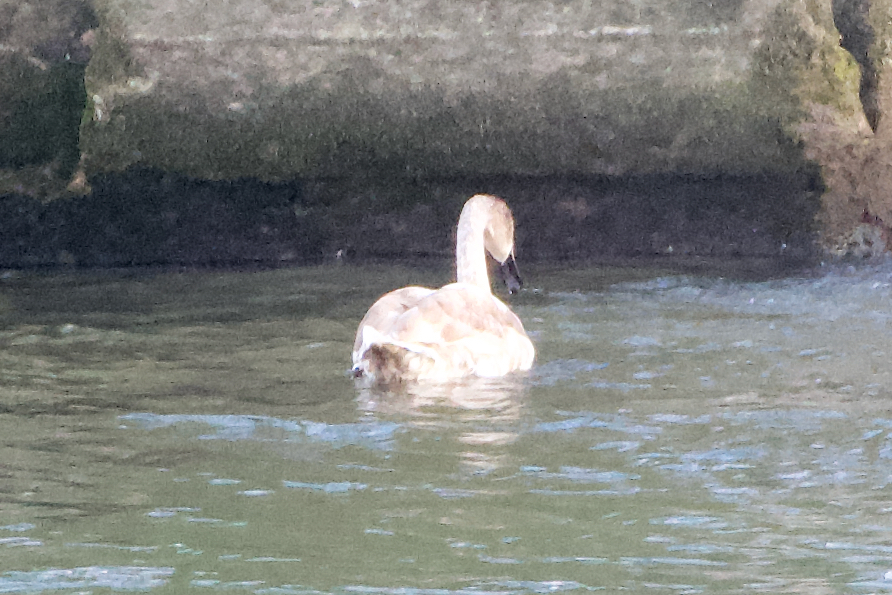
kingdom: Animalia
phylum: Chordata
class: Aves
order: Anseriformes
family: Anatidae
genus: Cygnus
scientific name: Cygnus olor
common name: Mute swan
